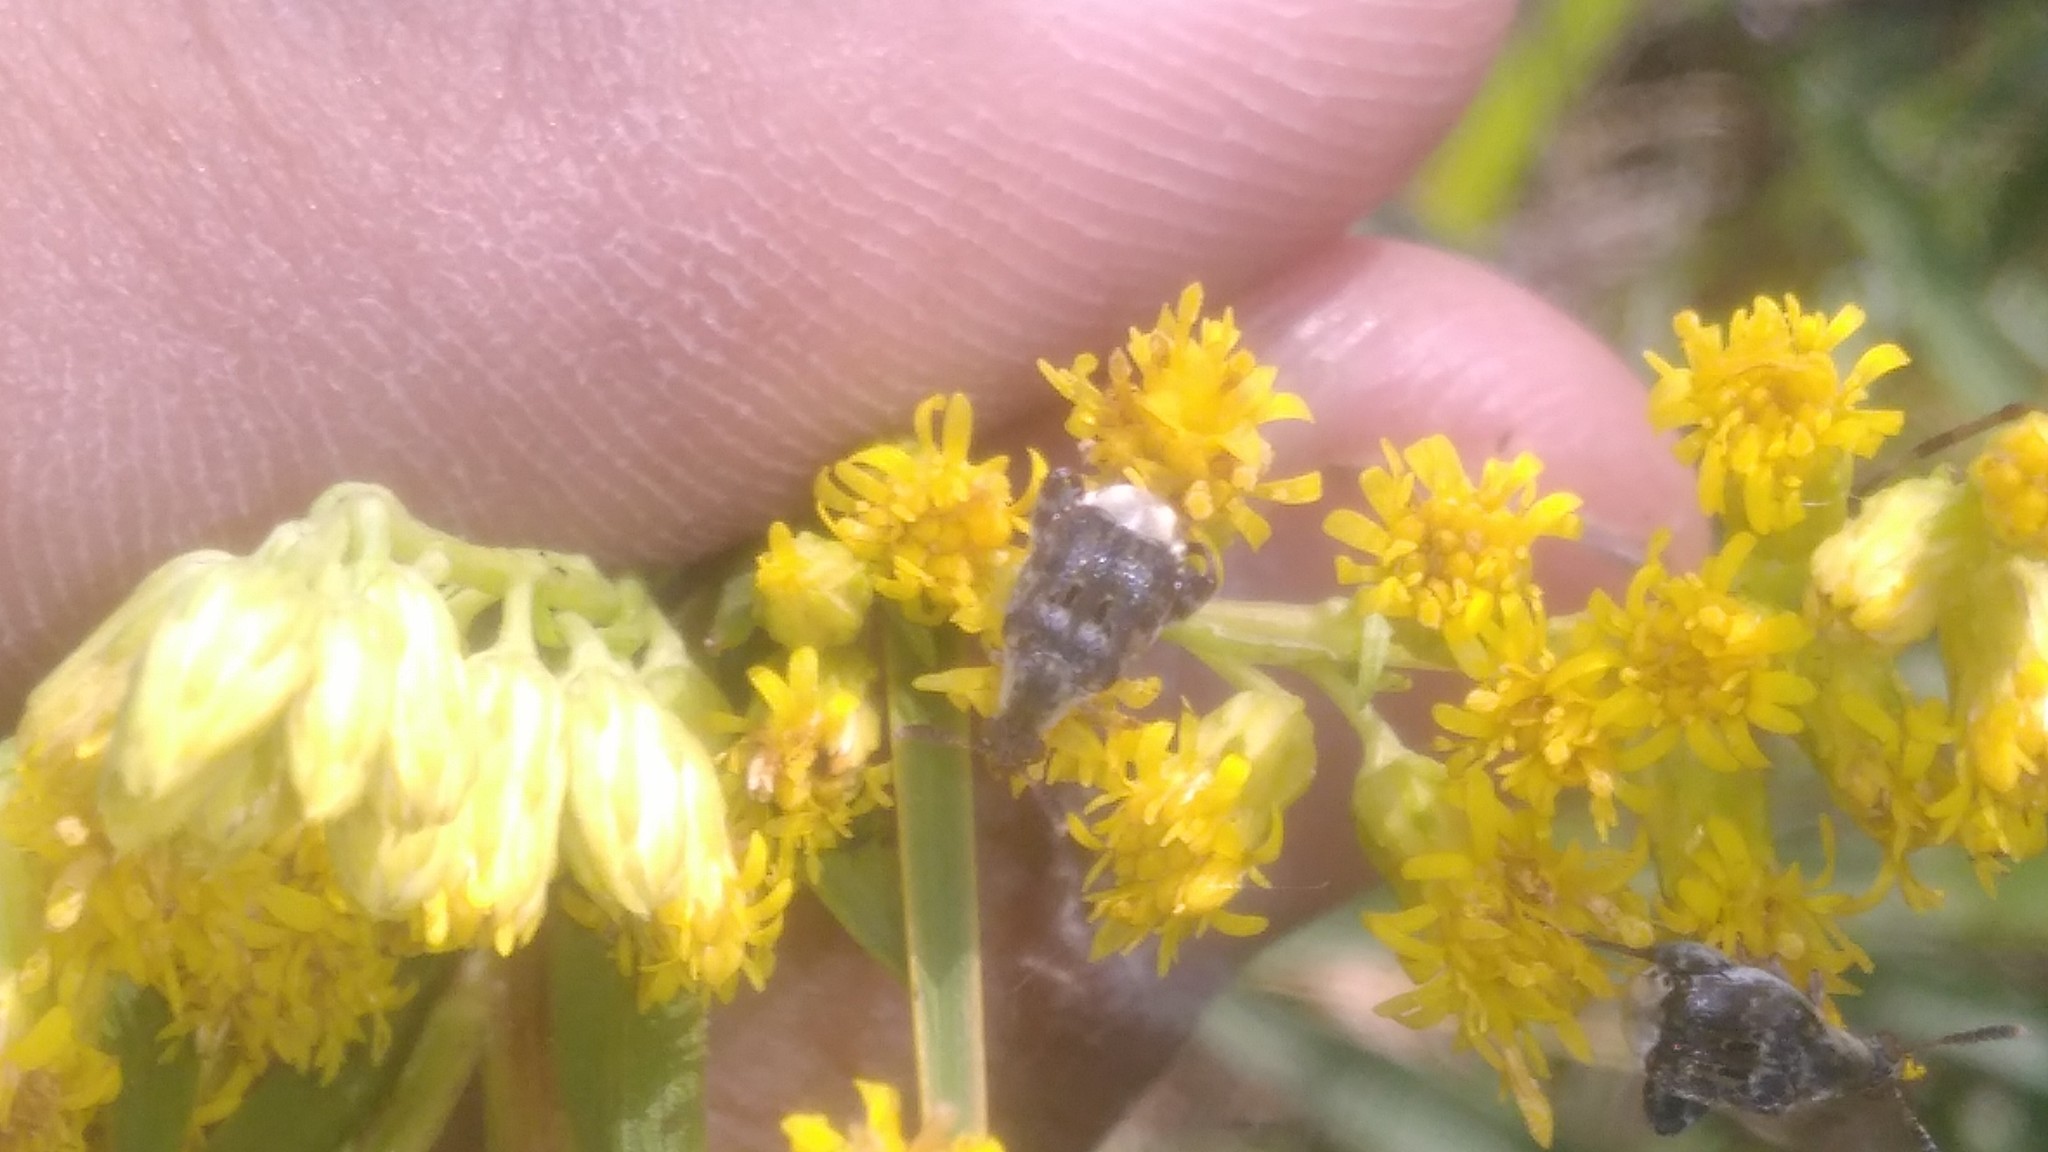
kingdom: Animalia
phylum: Arthropoda
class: Insecta
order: Coleoptera
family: Chrysomelidae
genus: Penthobruchus
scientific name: Penthobruchus
